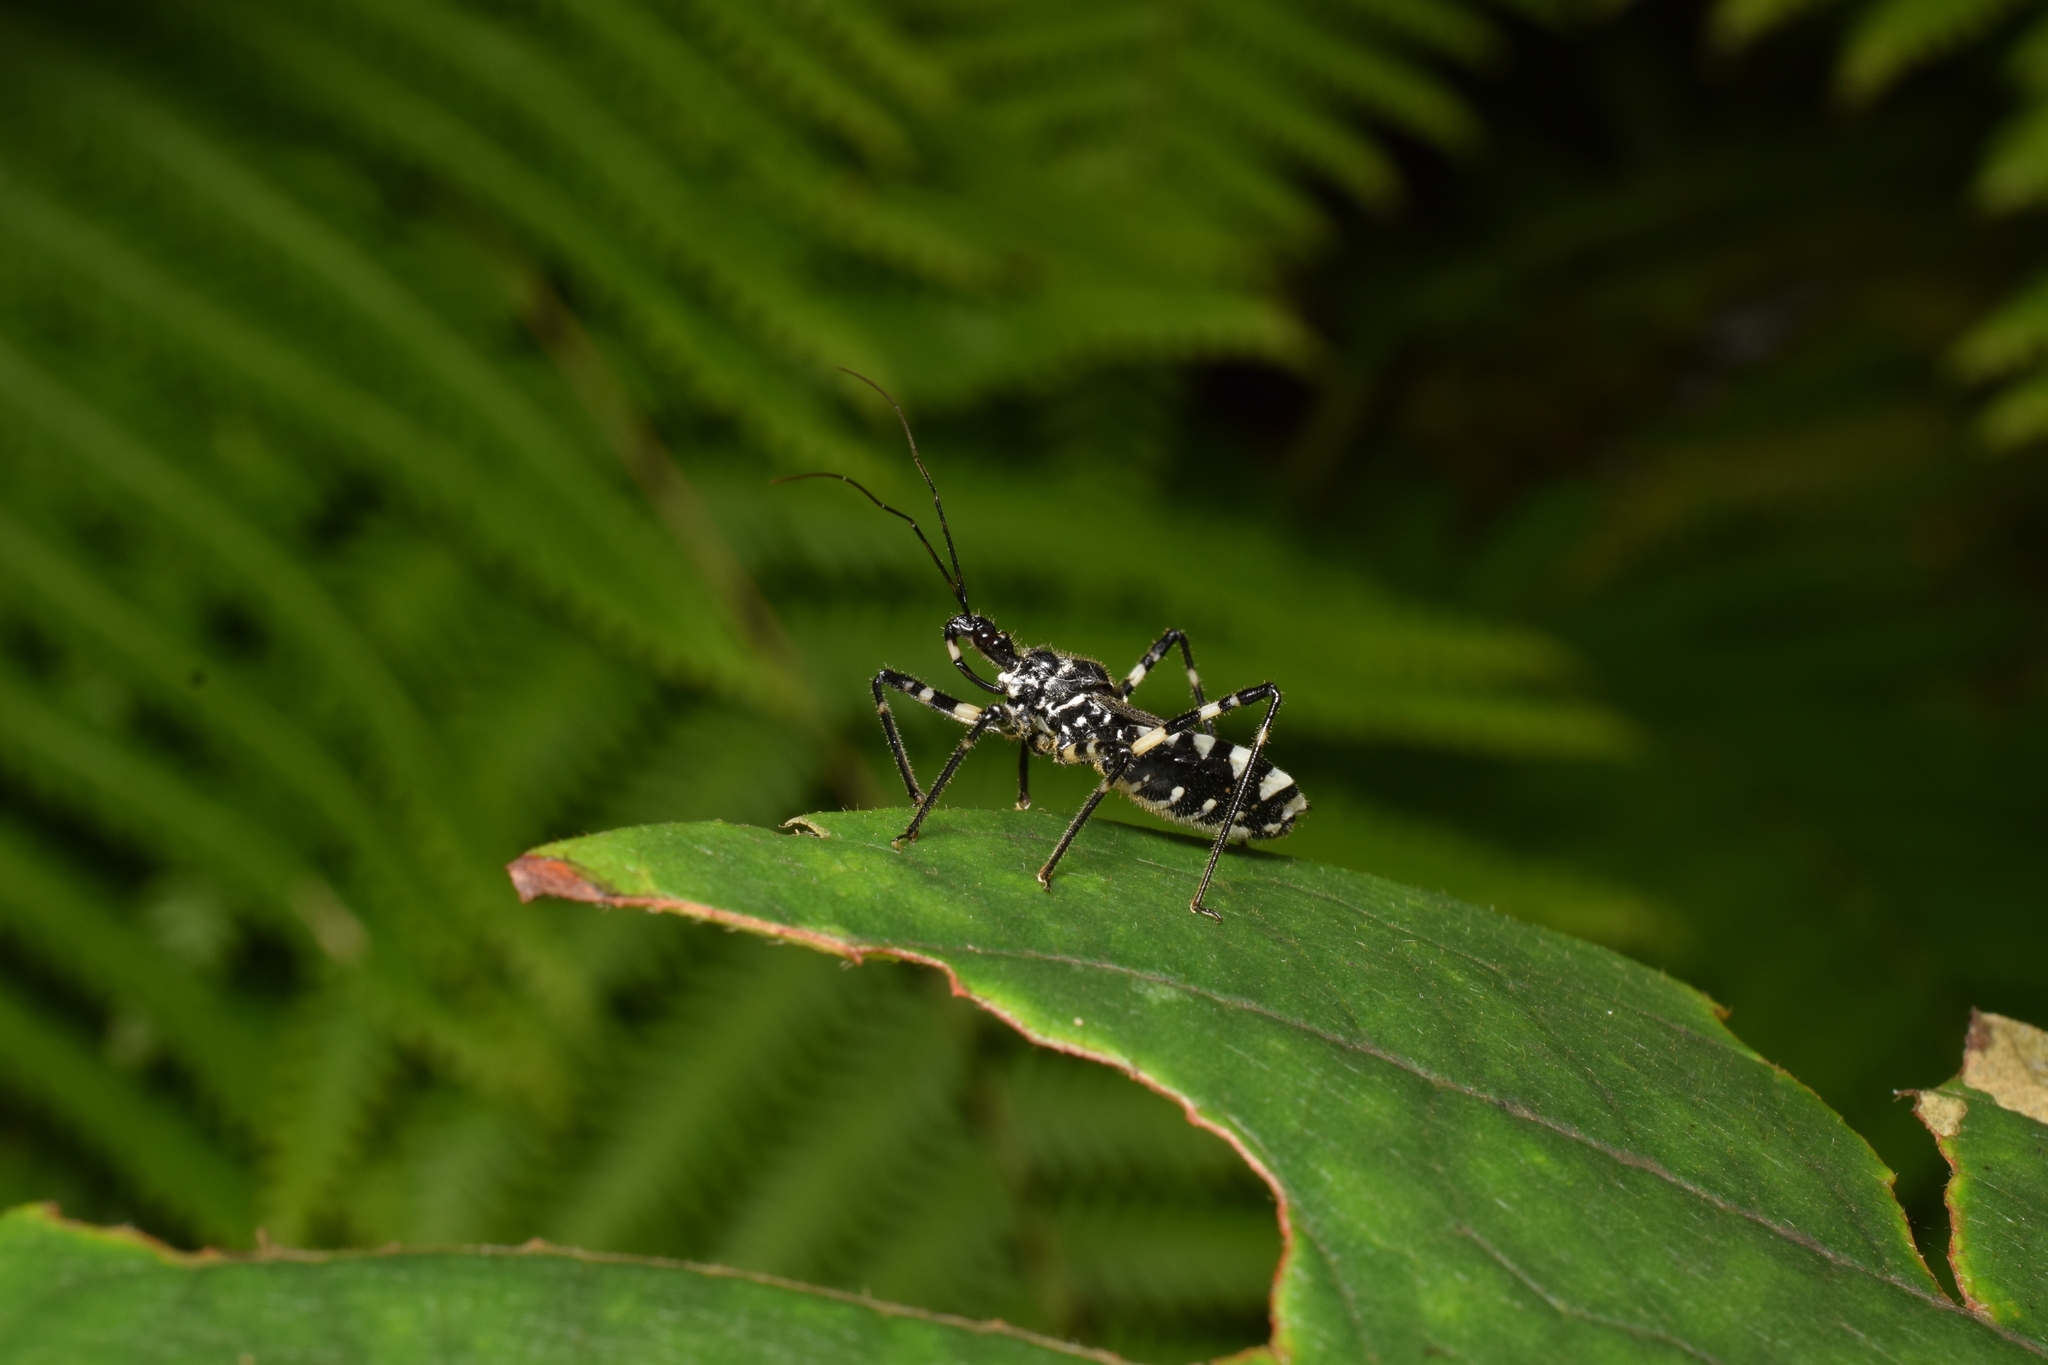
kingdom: Animalia
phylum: Arthropoda
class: Insecta
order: Hemiptera
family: Reduviidae
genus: Sphedanolestes
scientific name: Sphedanolestes impressicollis
